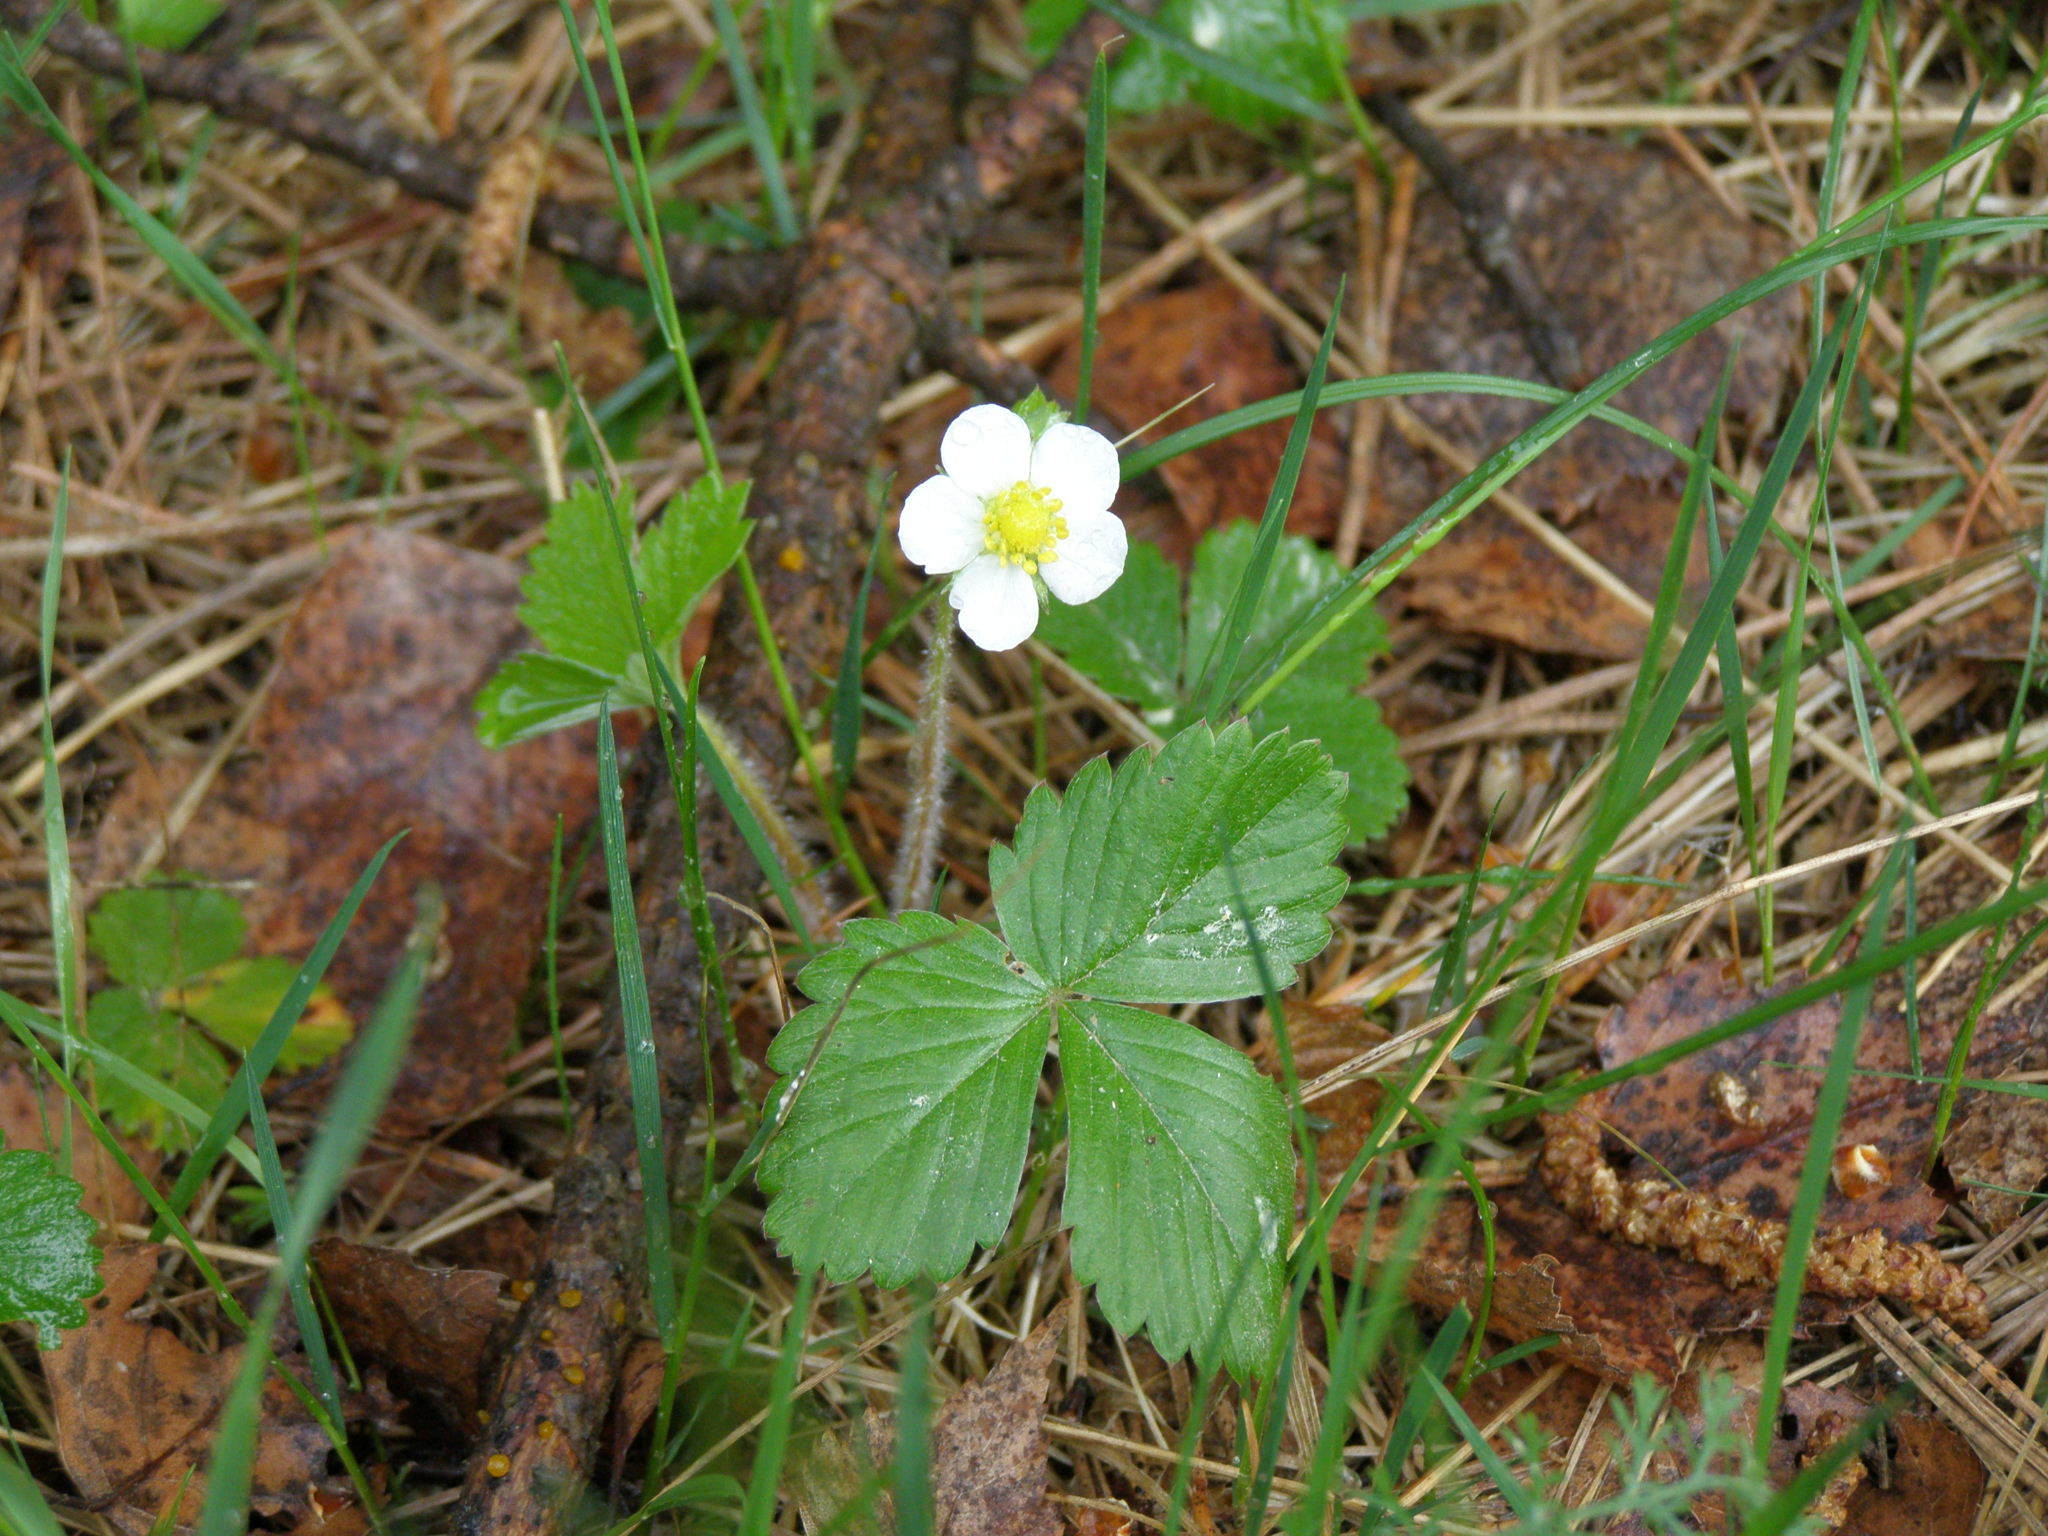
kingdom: Plantae
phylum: Tracheophyta
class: Magnoliopsida
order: Rosales
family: Rosaceae
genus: Fragaria
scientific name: Fragaria vesca
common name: Wild strawberry
